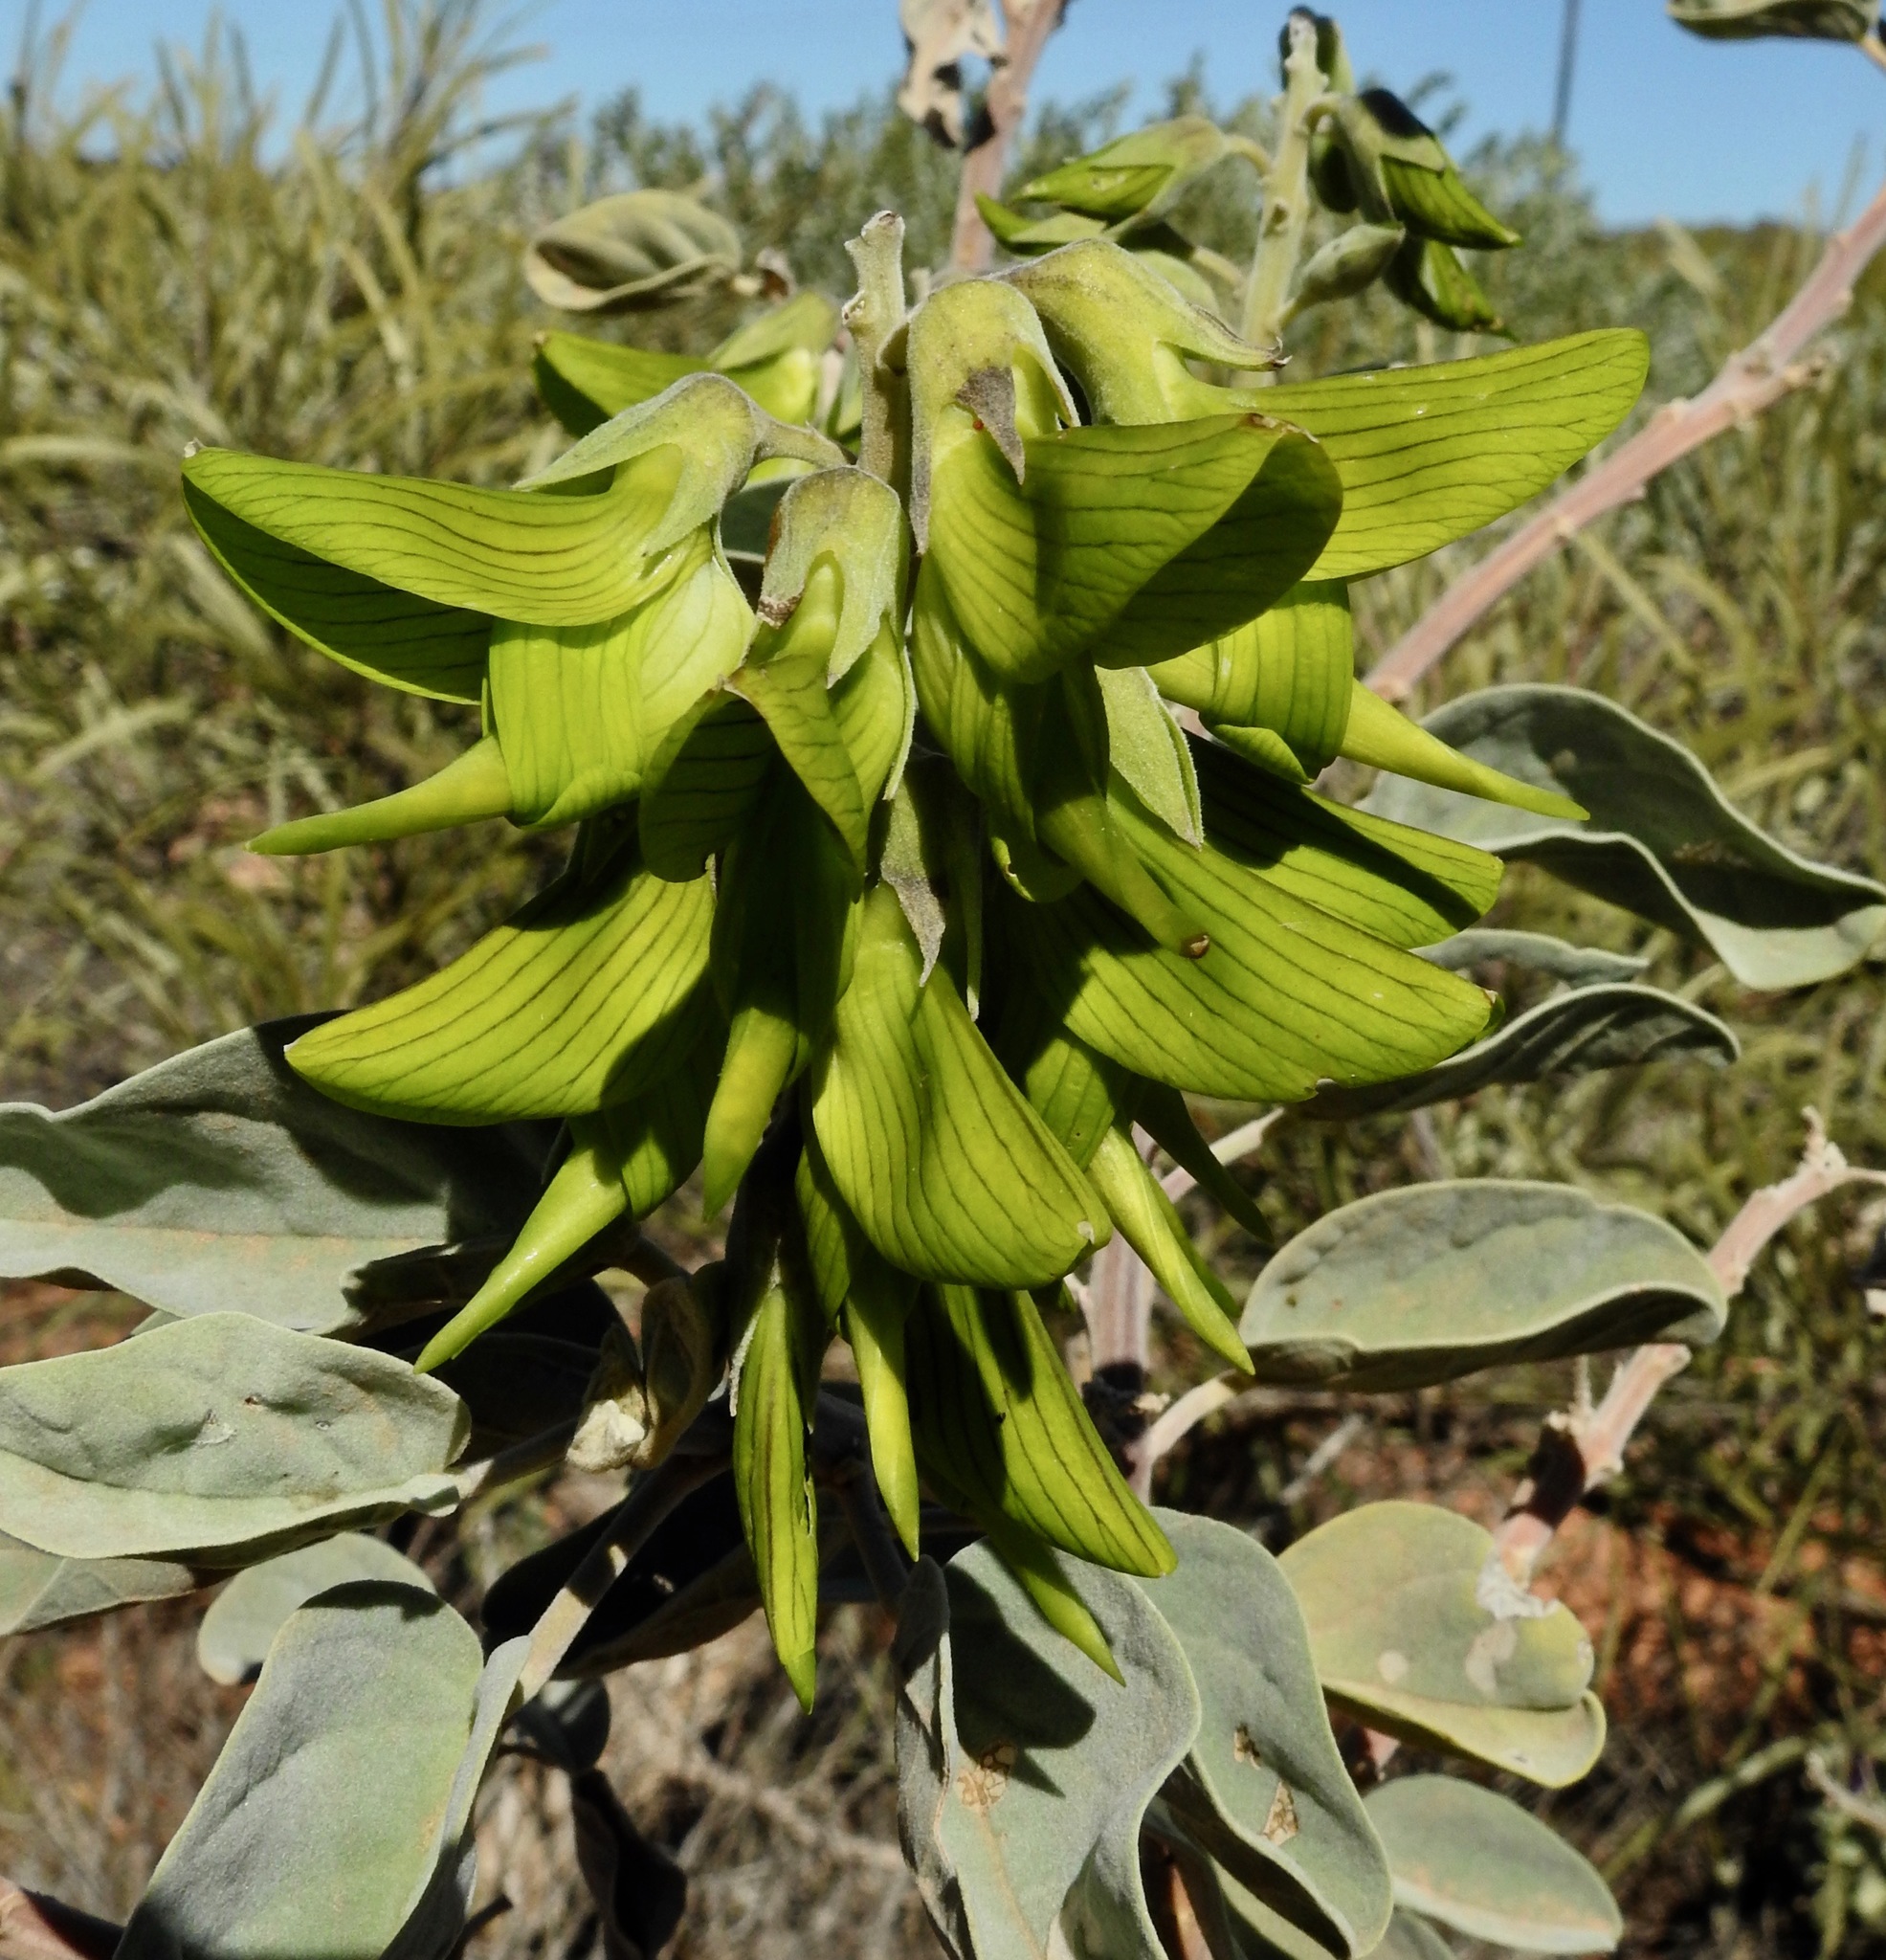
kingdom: Plantae
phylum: Tracheophyta
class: Magnoliopsida
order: Fabales
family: Fabaceae
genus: Crotalaria
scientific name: Crotalaria cunninghamii
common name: Birdflower rattlepod
